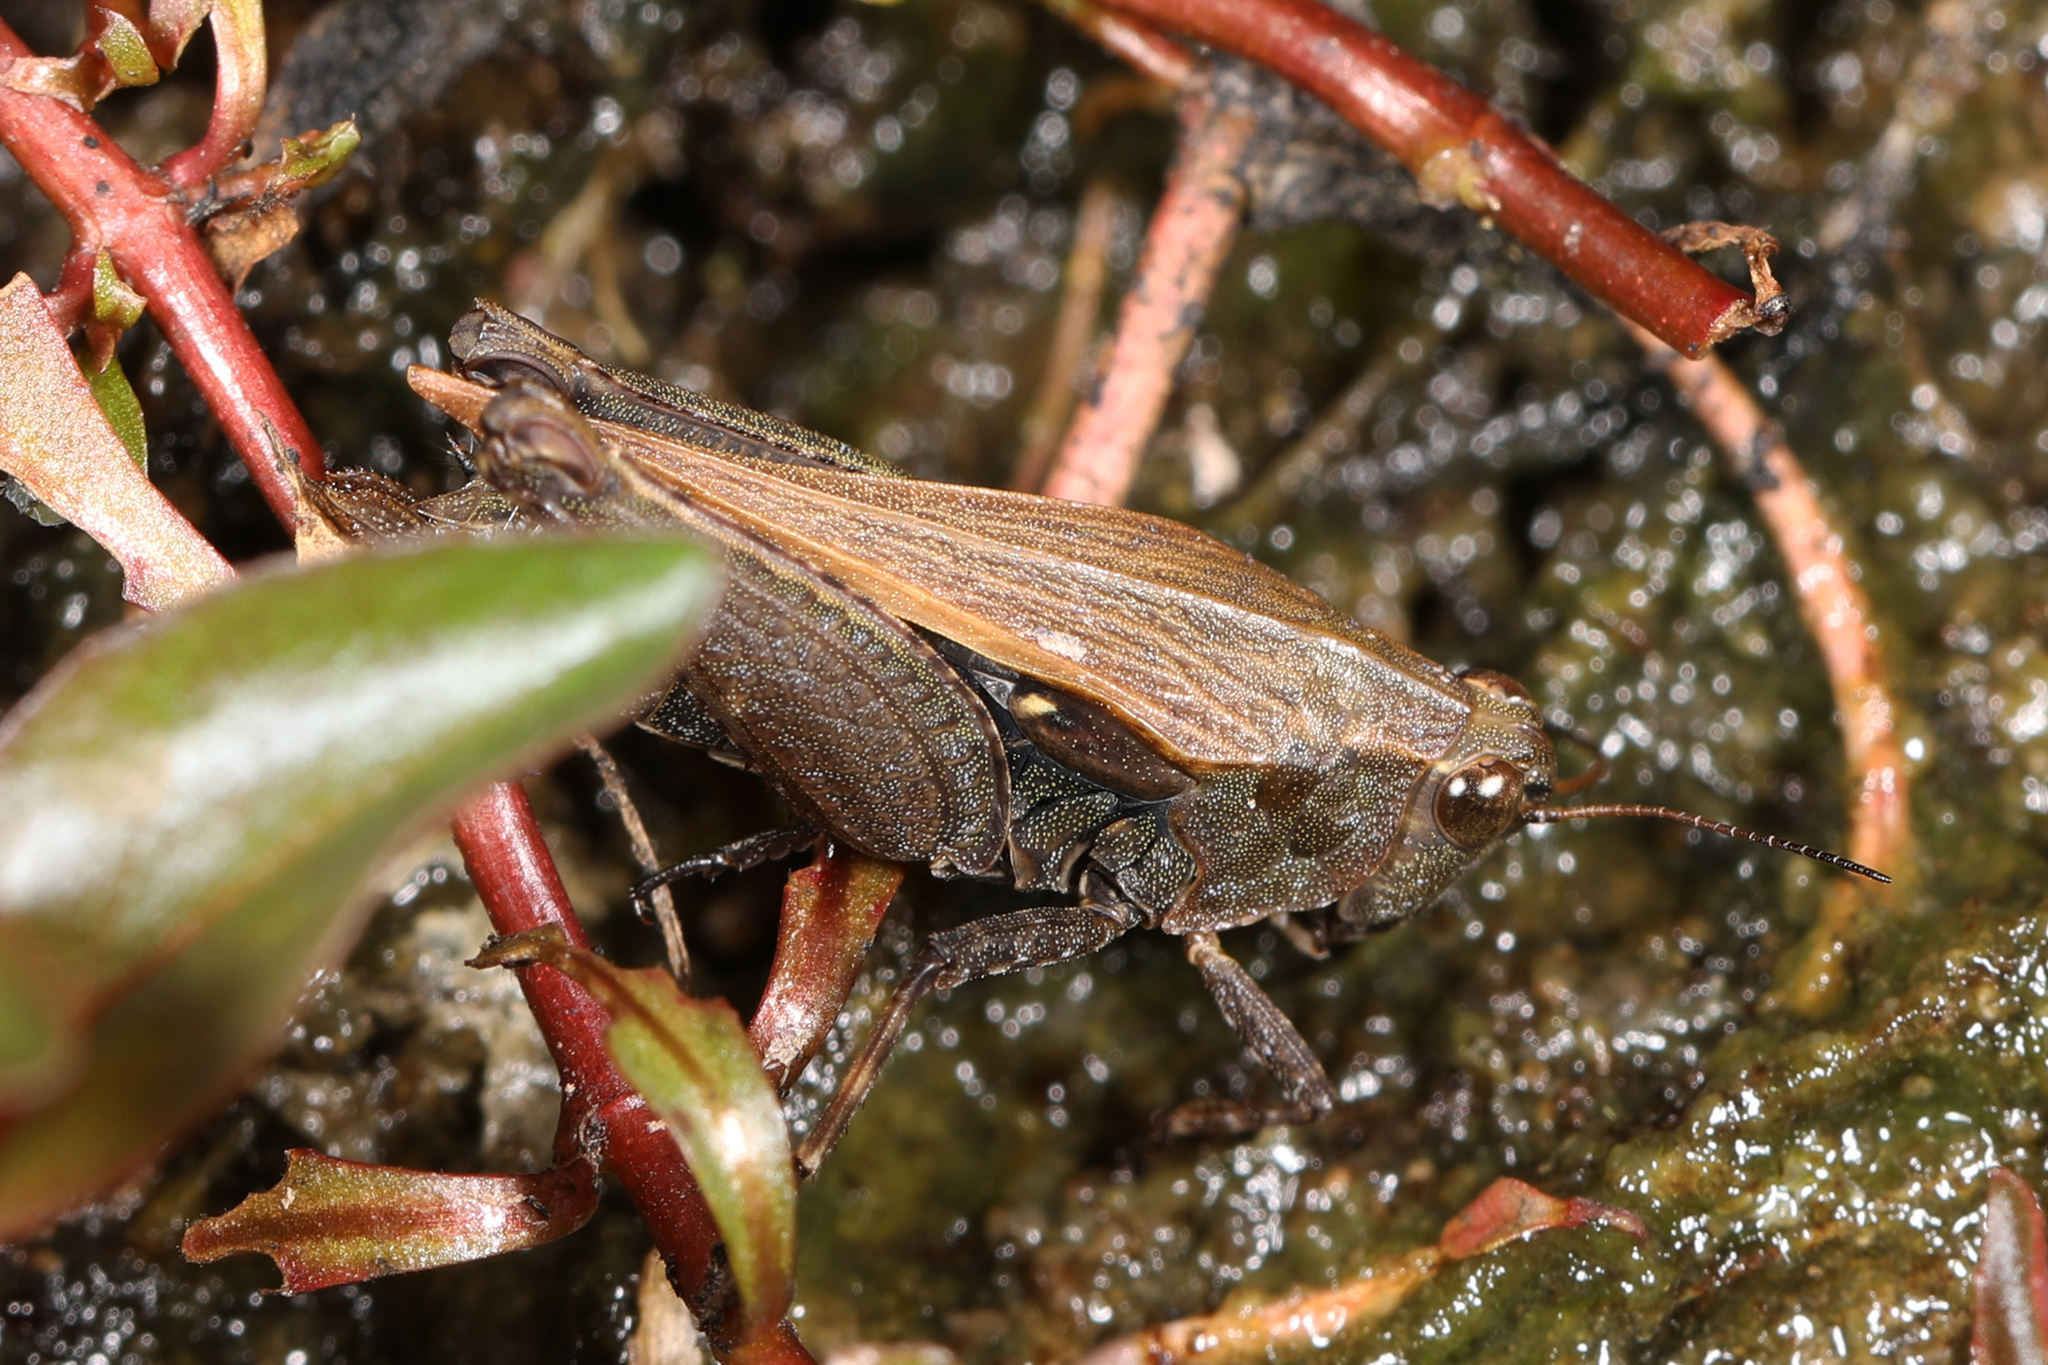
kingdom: Animalia
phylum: Arthropoda
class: Insecta
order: Orthoptera
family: Tetrigidae
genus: Tettigidea
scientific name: Tettigidea laterale
